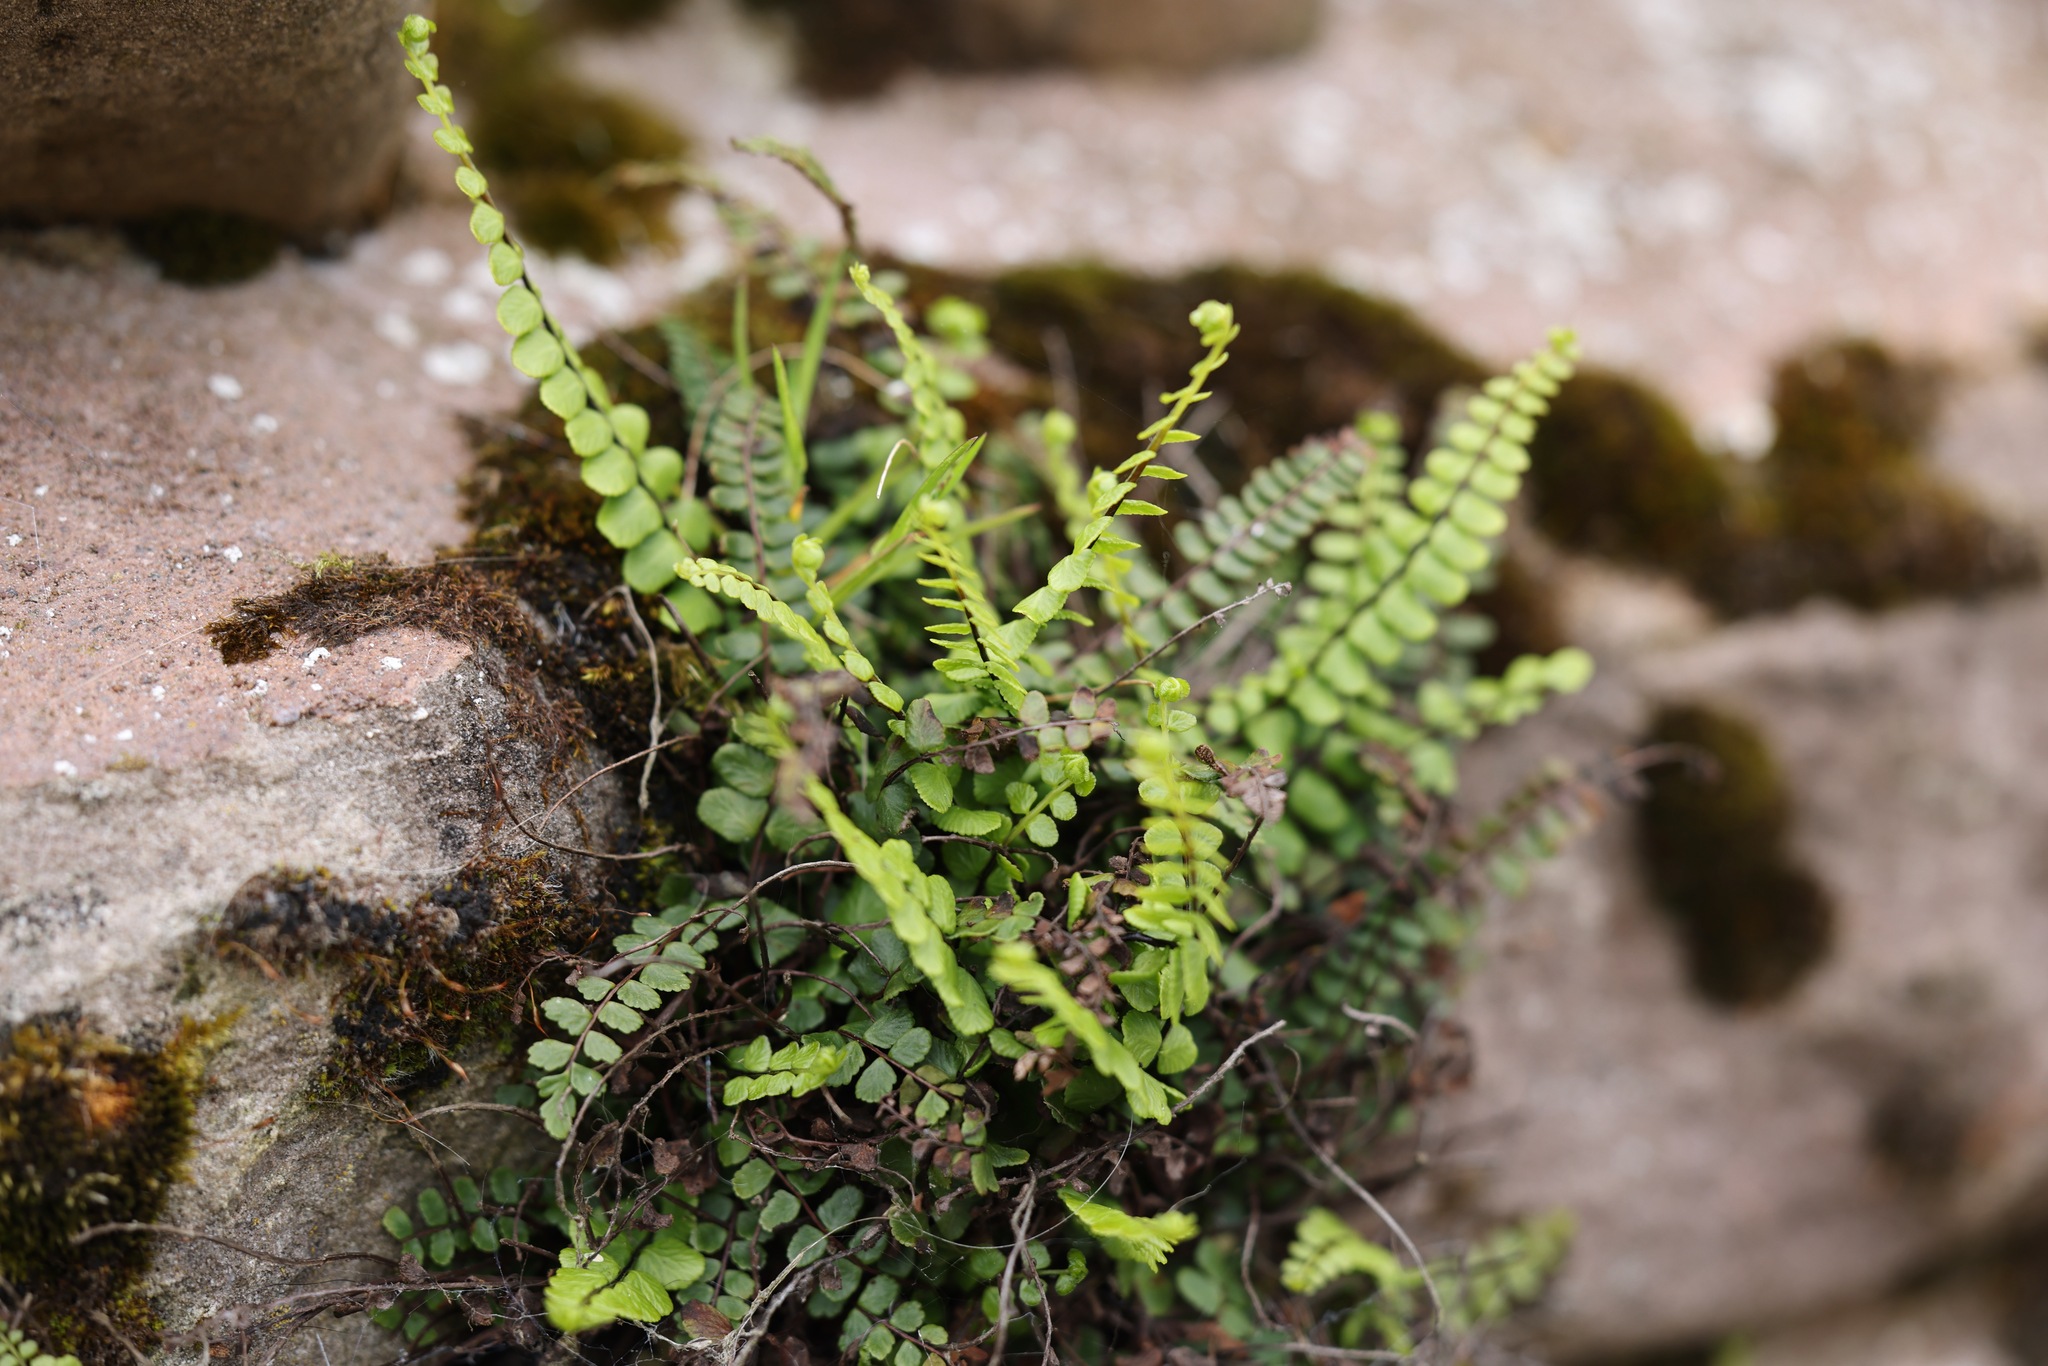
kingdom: Plantae
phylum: Tracheophyta
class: Polypodiopsida
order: Polypodiales
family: Aspleniaceae
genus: Asplenium
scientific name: Asplenium trichomanes
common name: Maidenhair spleenwort
